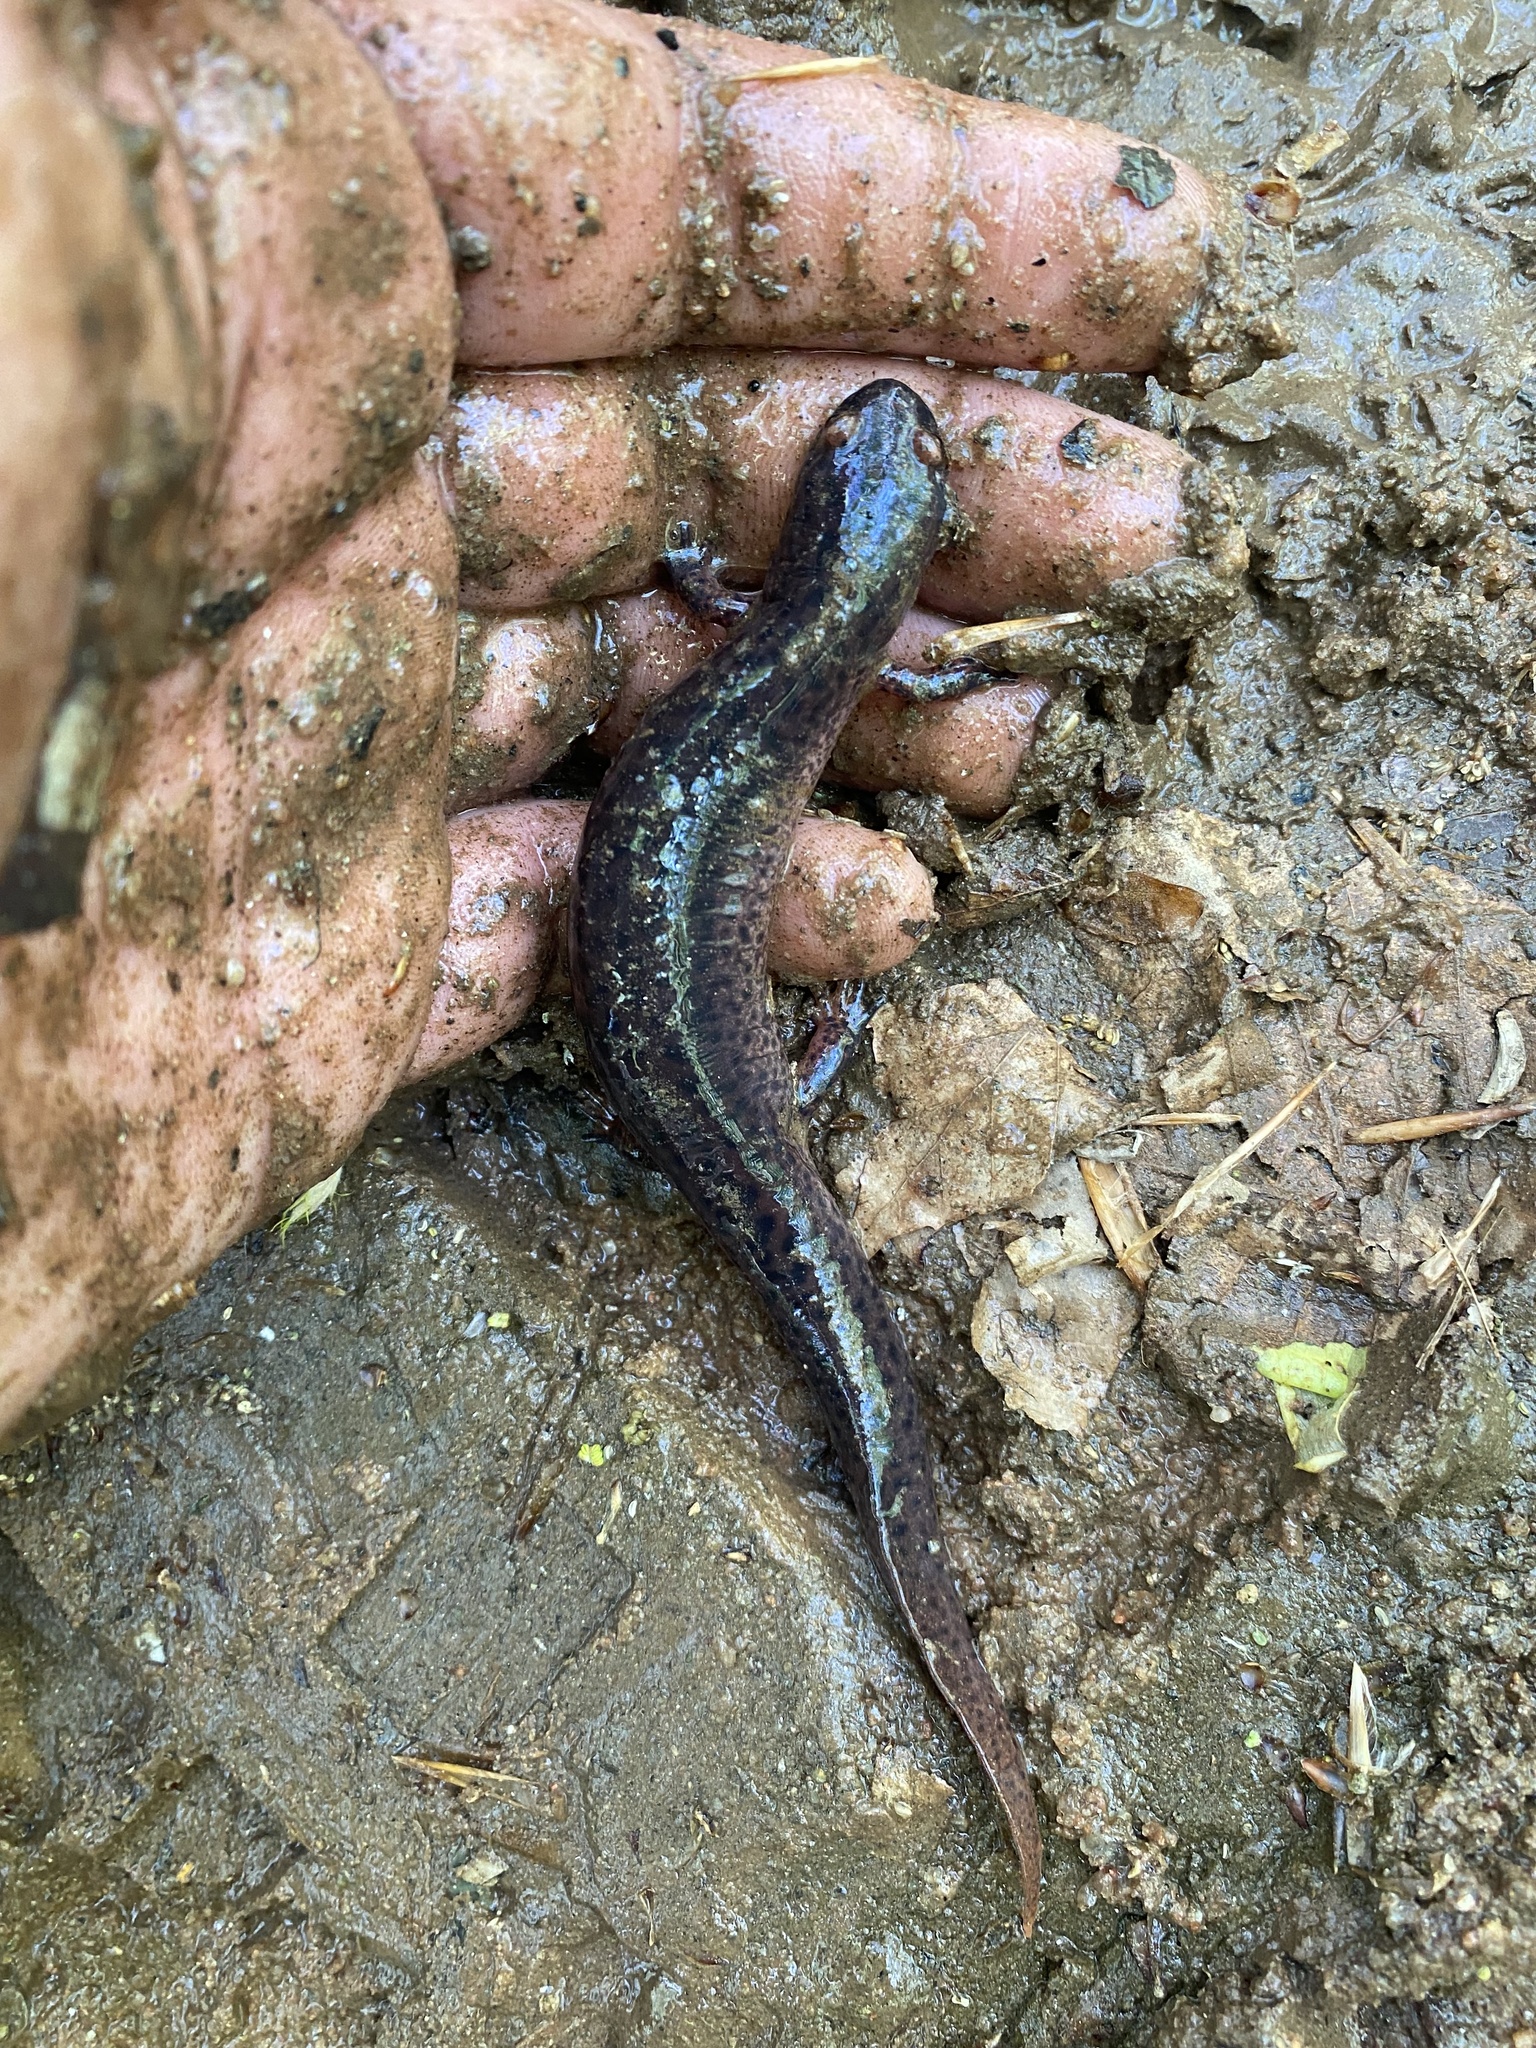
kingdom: Animalia
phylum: Chordata
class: Amphibia
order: Caudata
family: Plethodontidae
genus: Pseudotriton
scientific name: Pseudotriton ruber
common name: Red salamander
